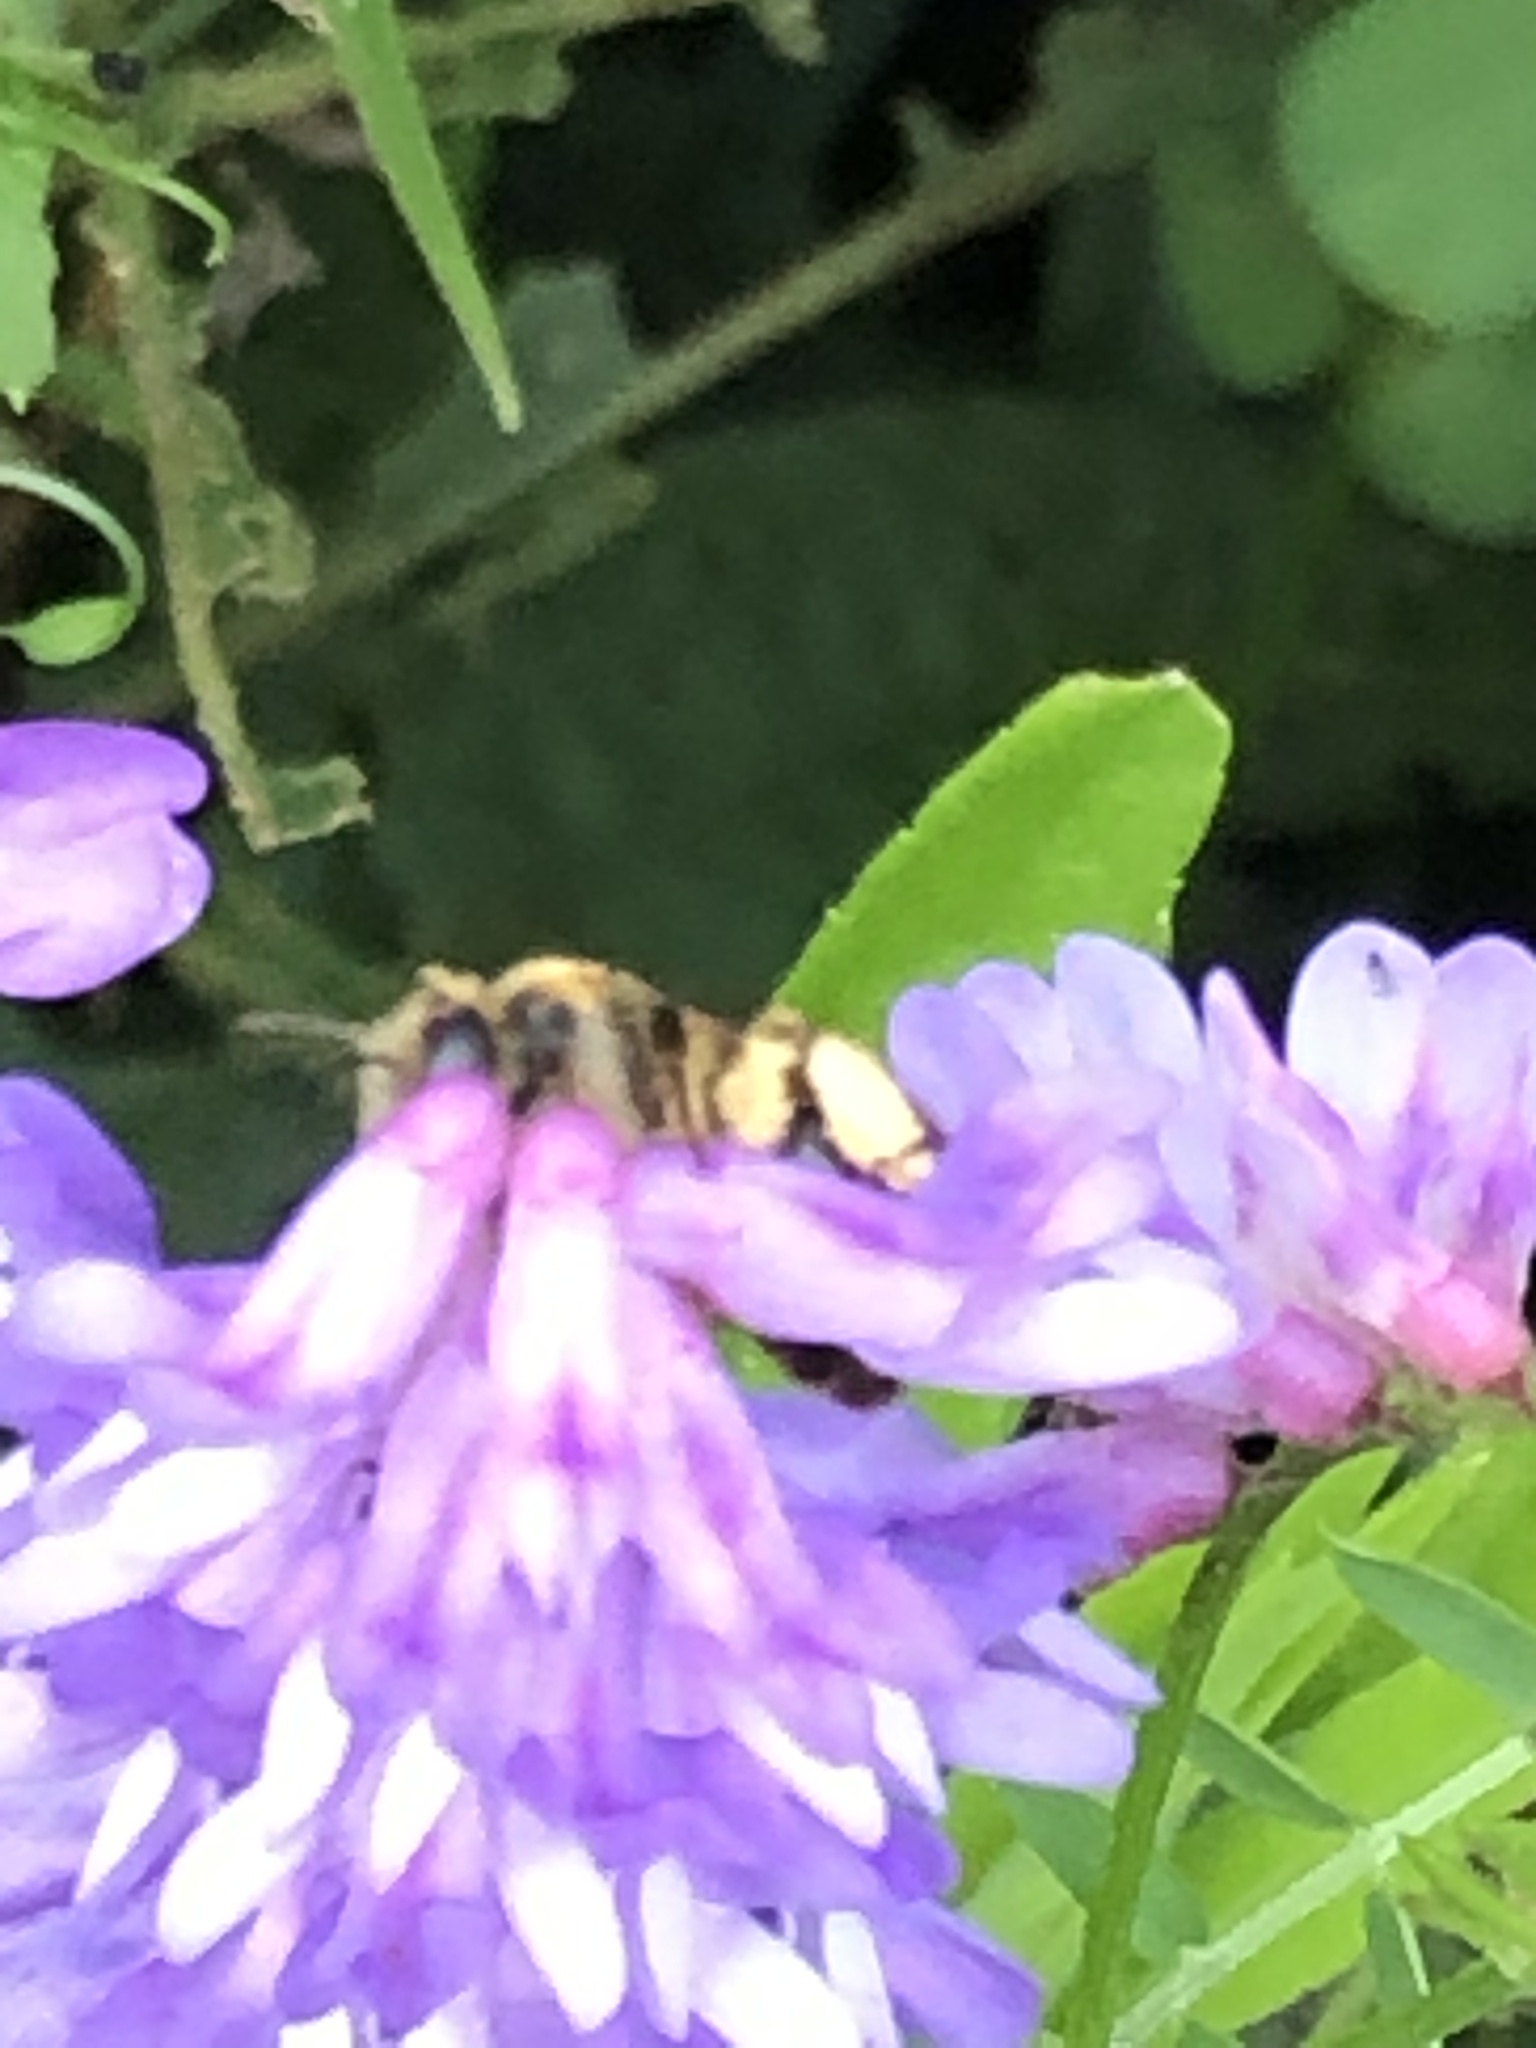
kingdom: Animalia
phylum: Arthropoda
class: Insecta
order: Hymenoptera
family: Andrenidae
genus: Andrena
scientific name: Andrena wilkella
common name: Wilke's mining bee
